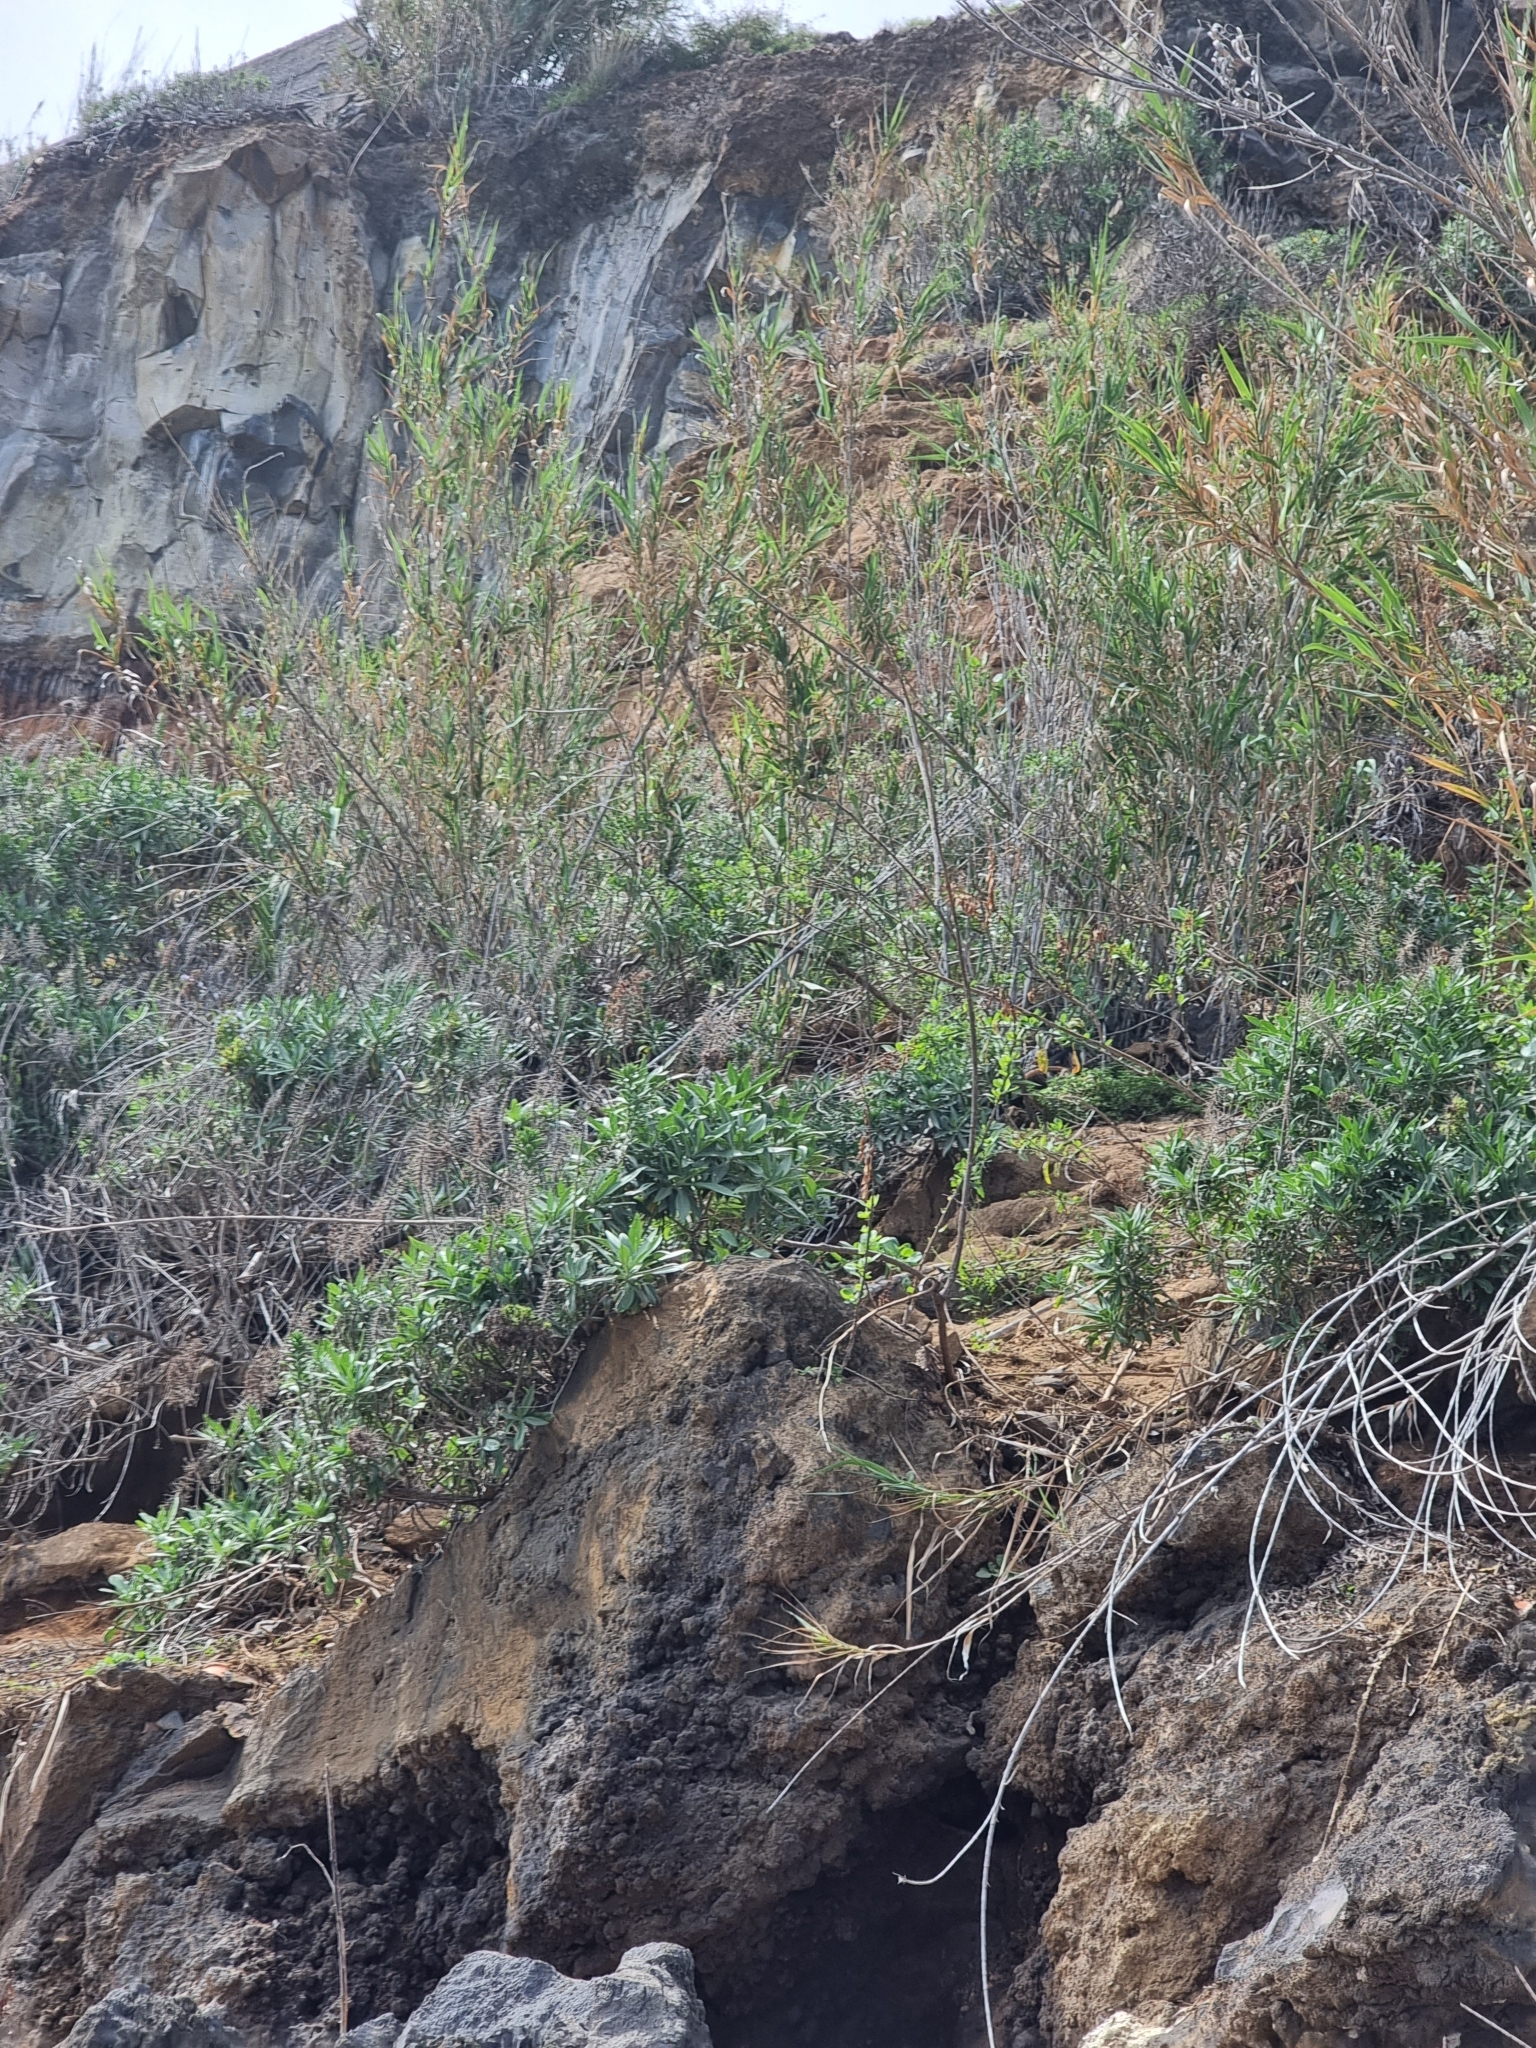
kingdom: Plantae
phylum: Tracheophyta
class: Magnoliopsida
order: Boraginales
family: Boraginaceae
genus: Echium
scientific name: Echium nervosum
